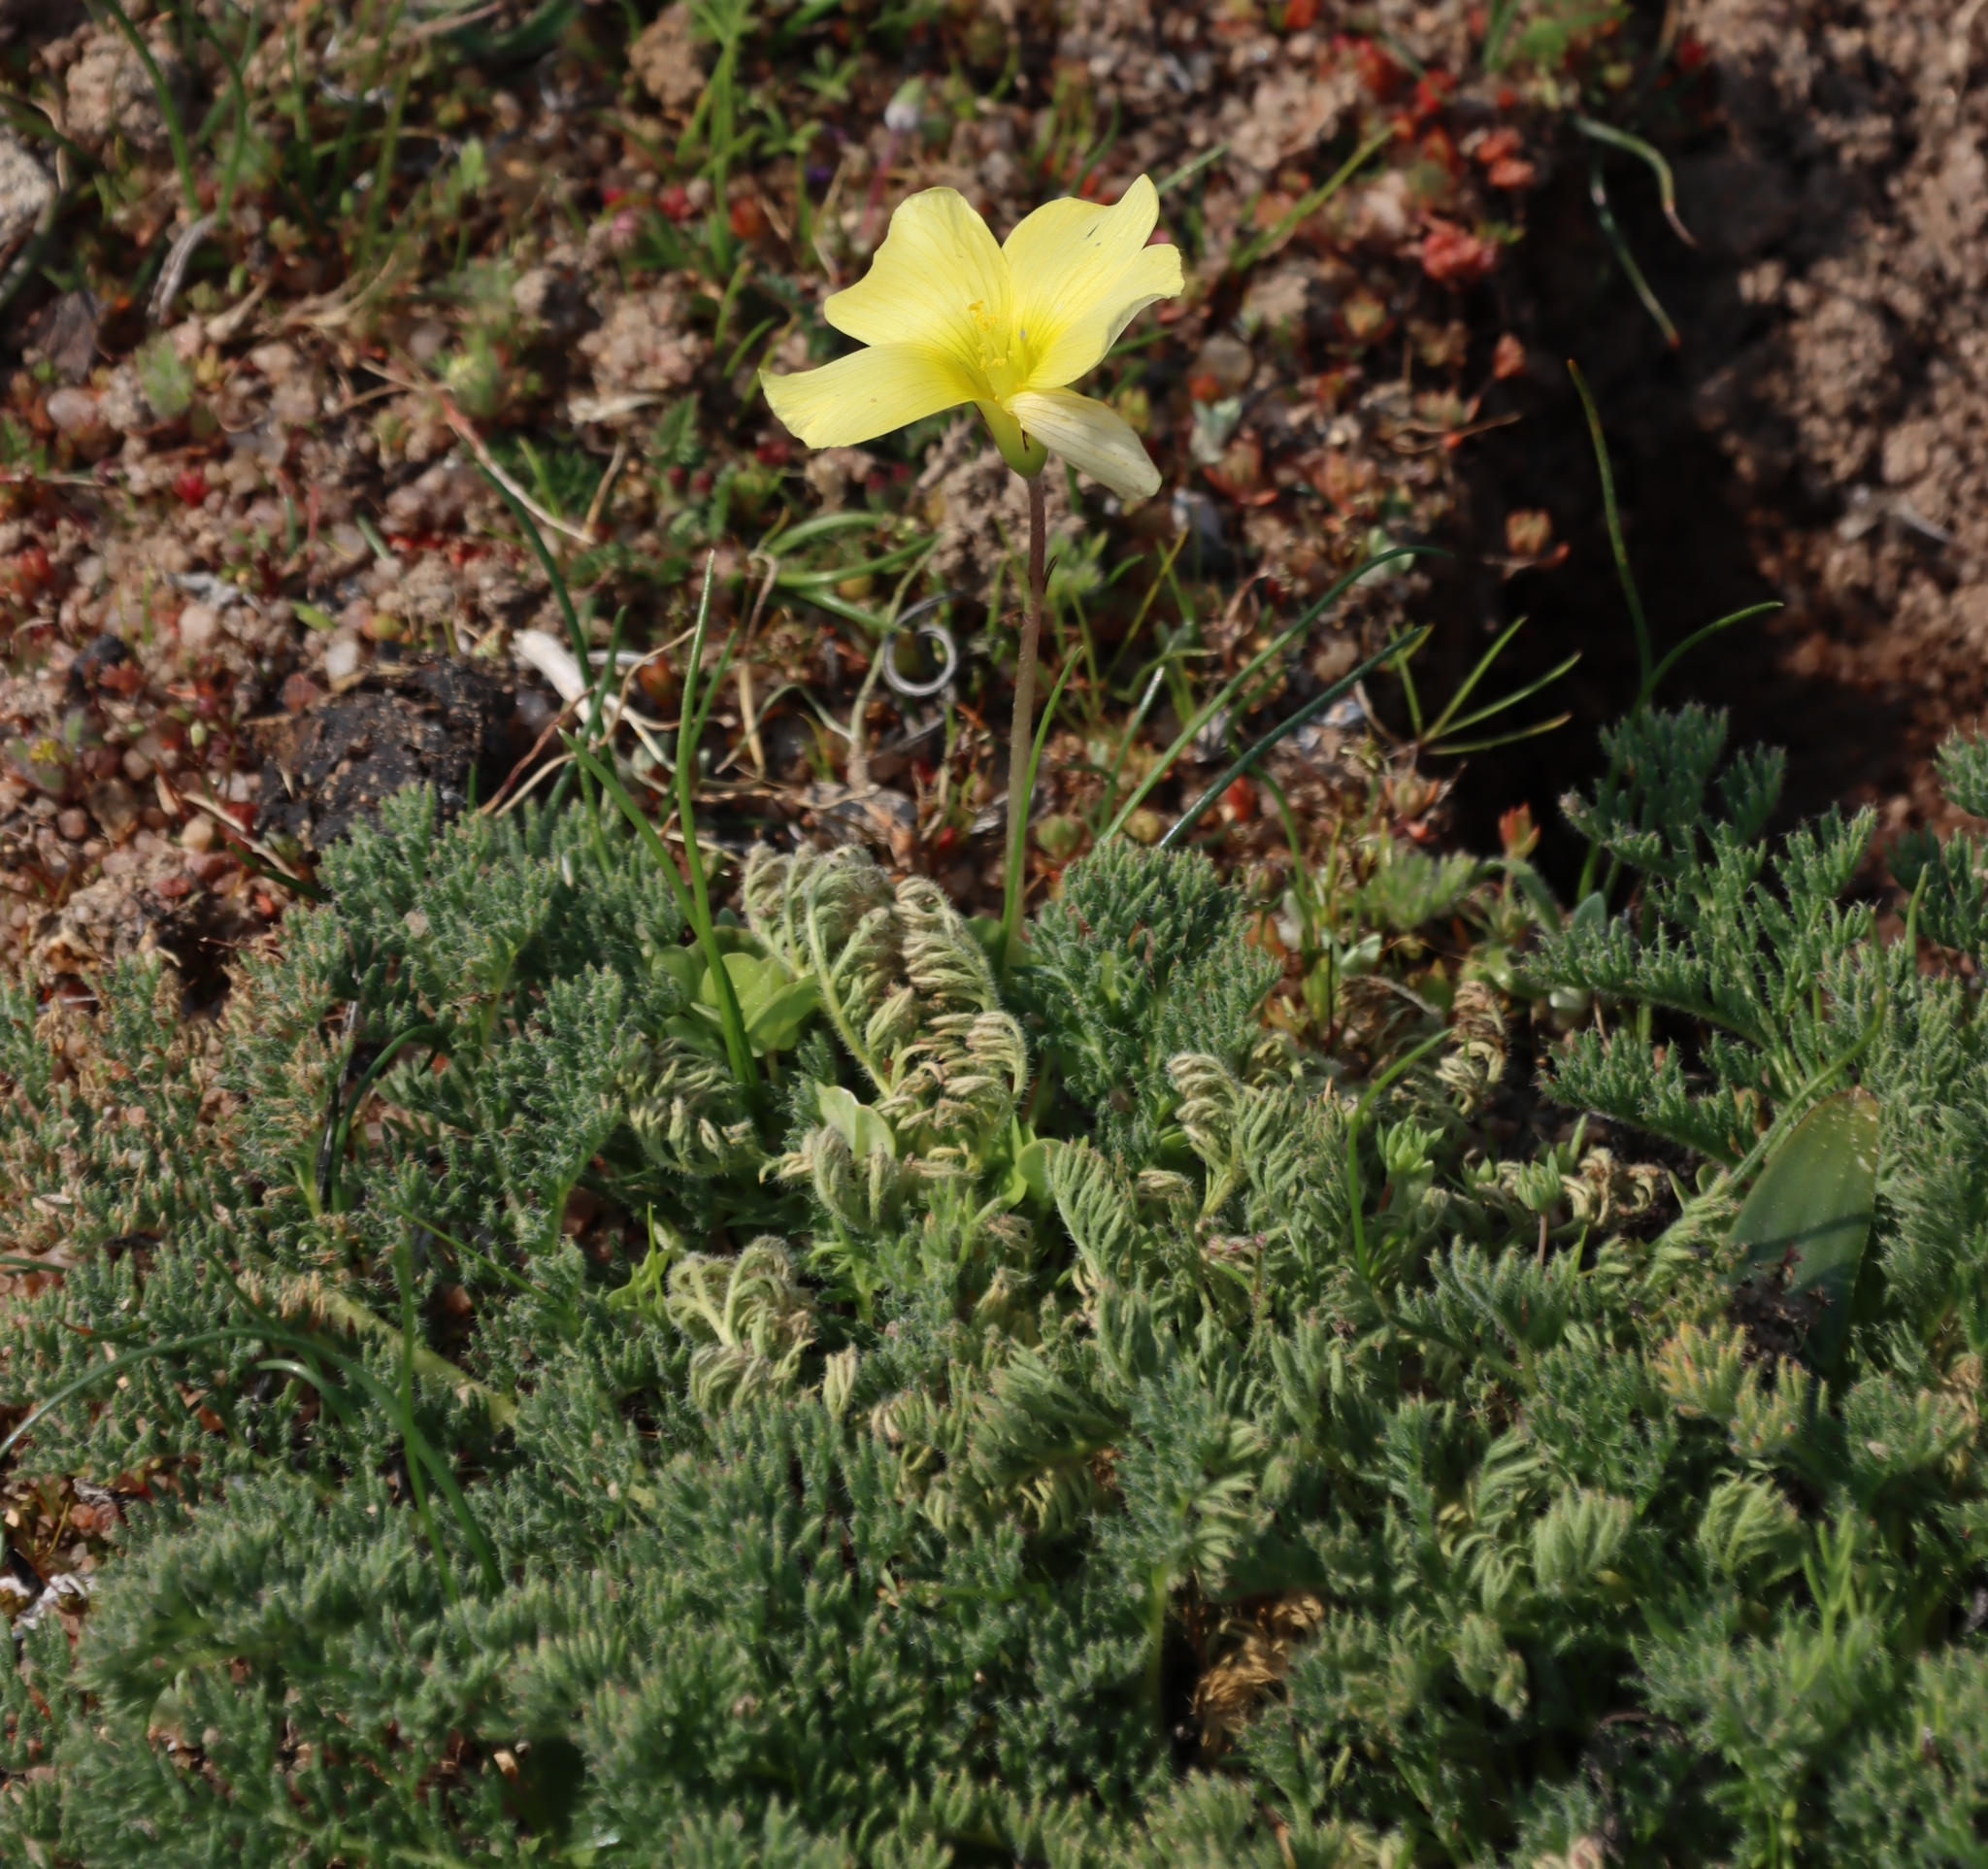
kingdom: Plantae
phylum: Tracheophyta
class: Magnoliopsida
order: Oxalidales
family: Oxalidaceae
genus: Oxalis
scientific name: Oxalis obtusa
